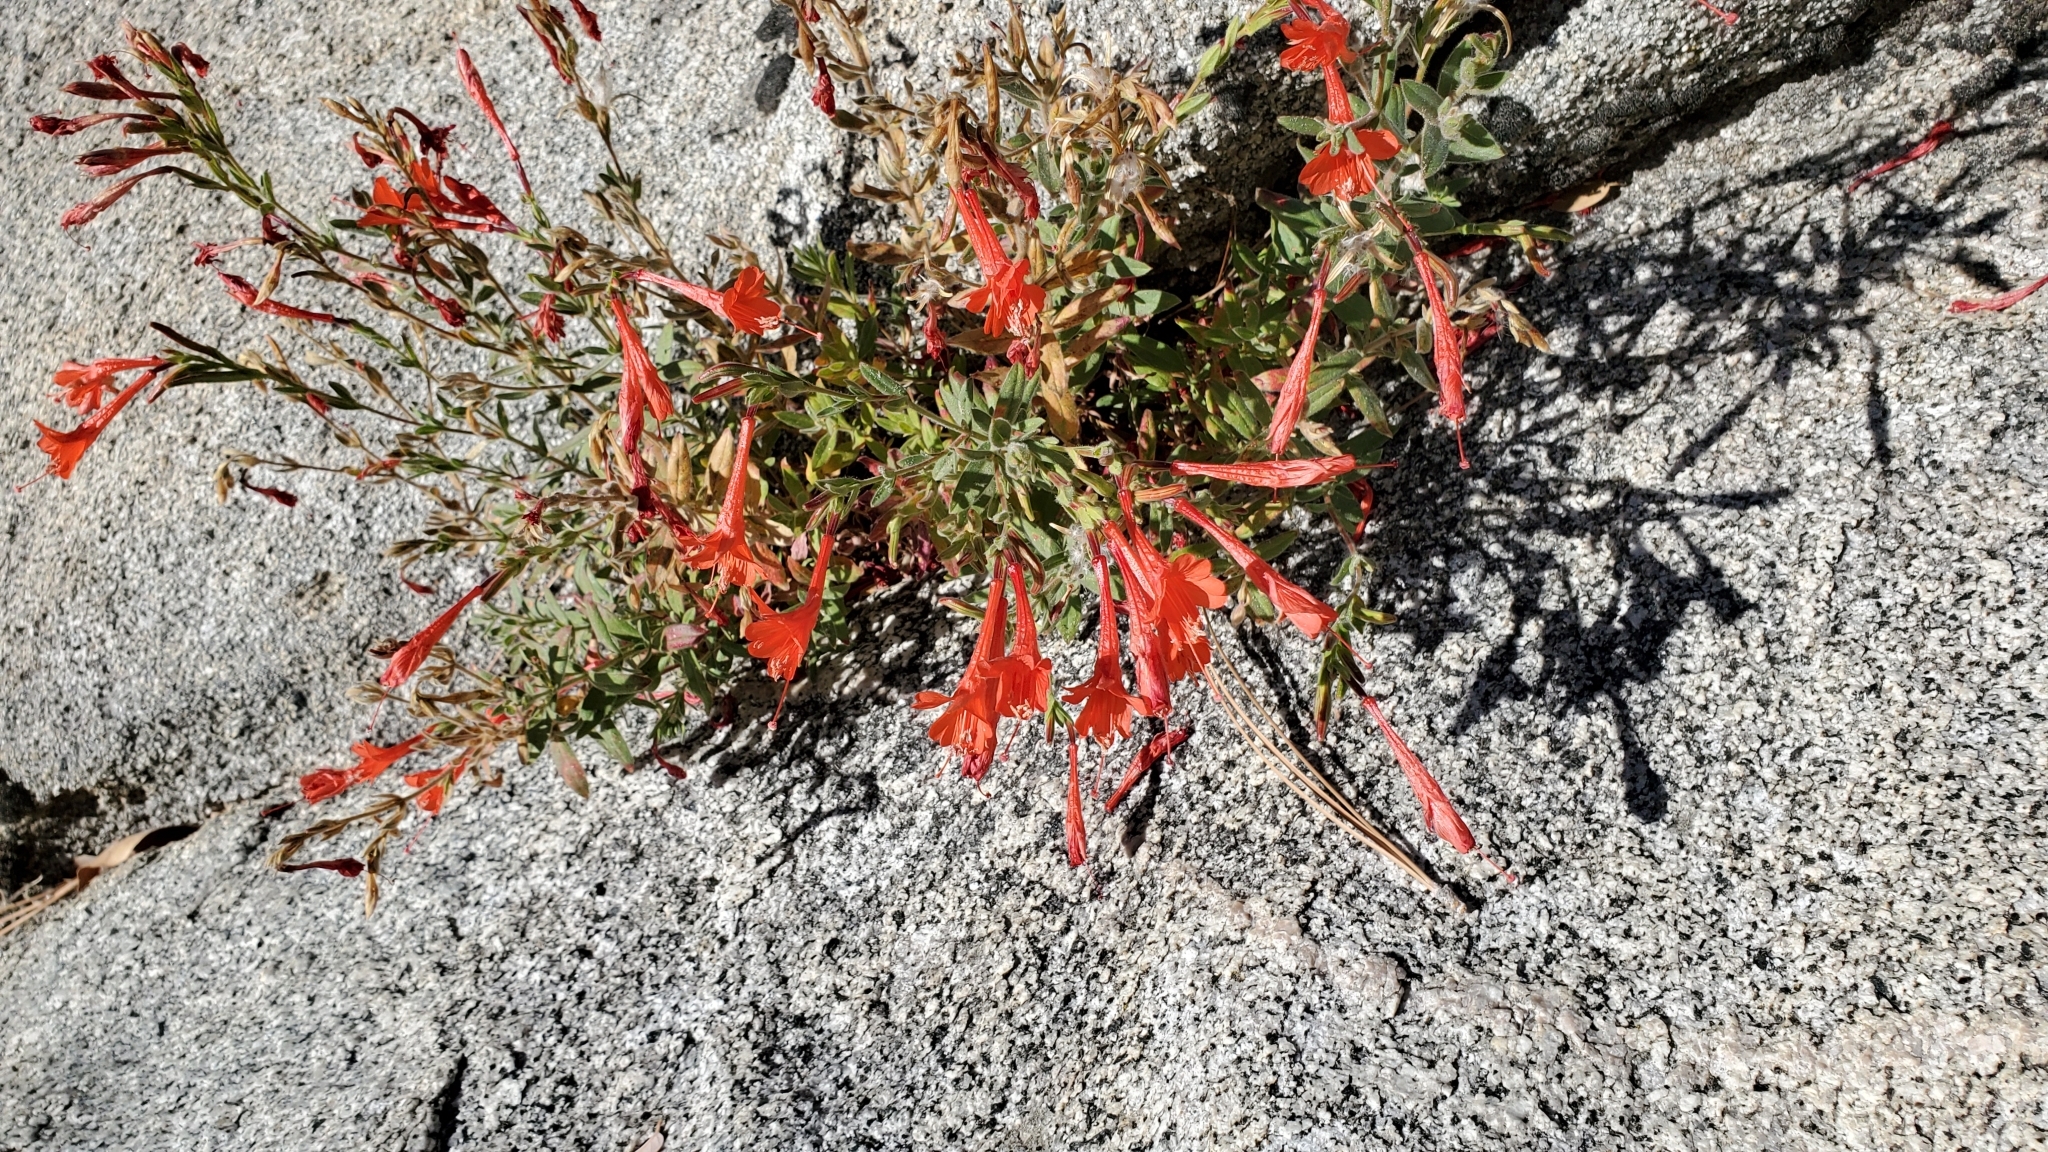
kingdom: Plantae
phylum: Tracheophyta
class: Magnoliopsida
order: Myrtales
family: Onagraceae
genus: Epilobium
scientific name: Epilobium canum
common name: California-fuchsia
